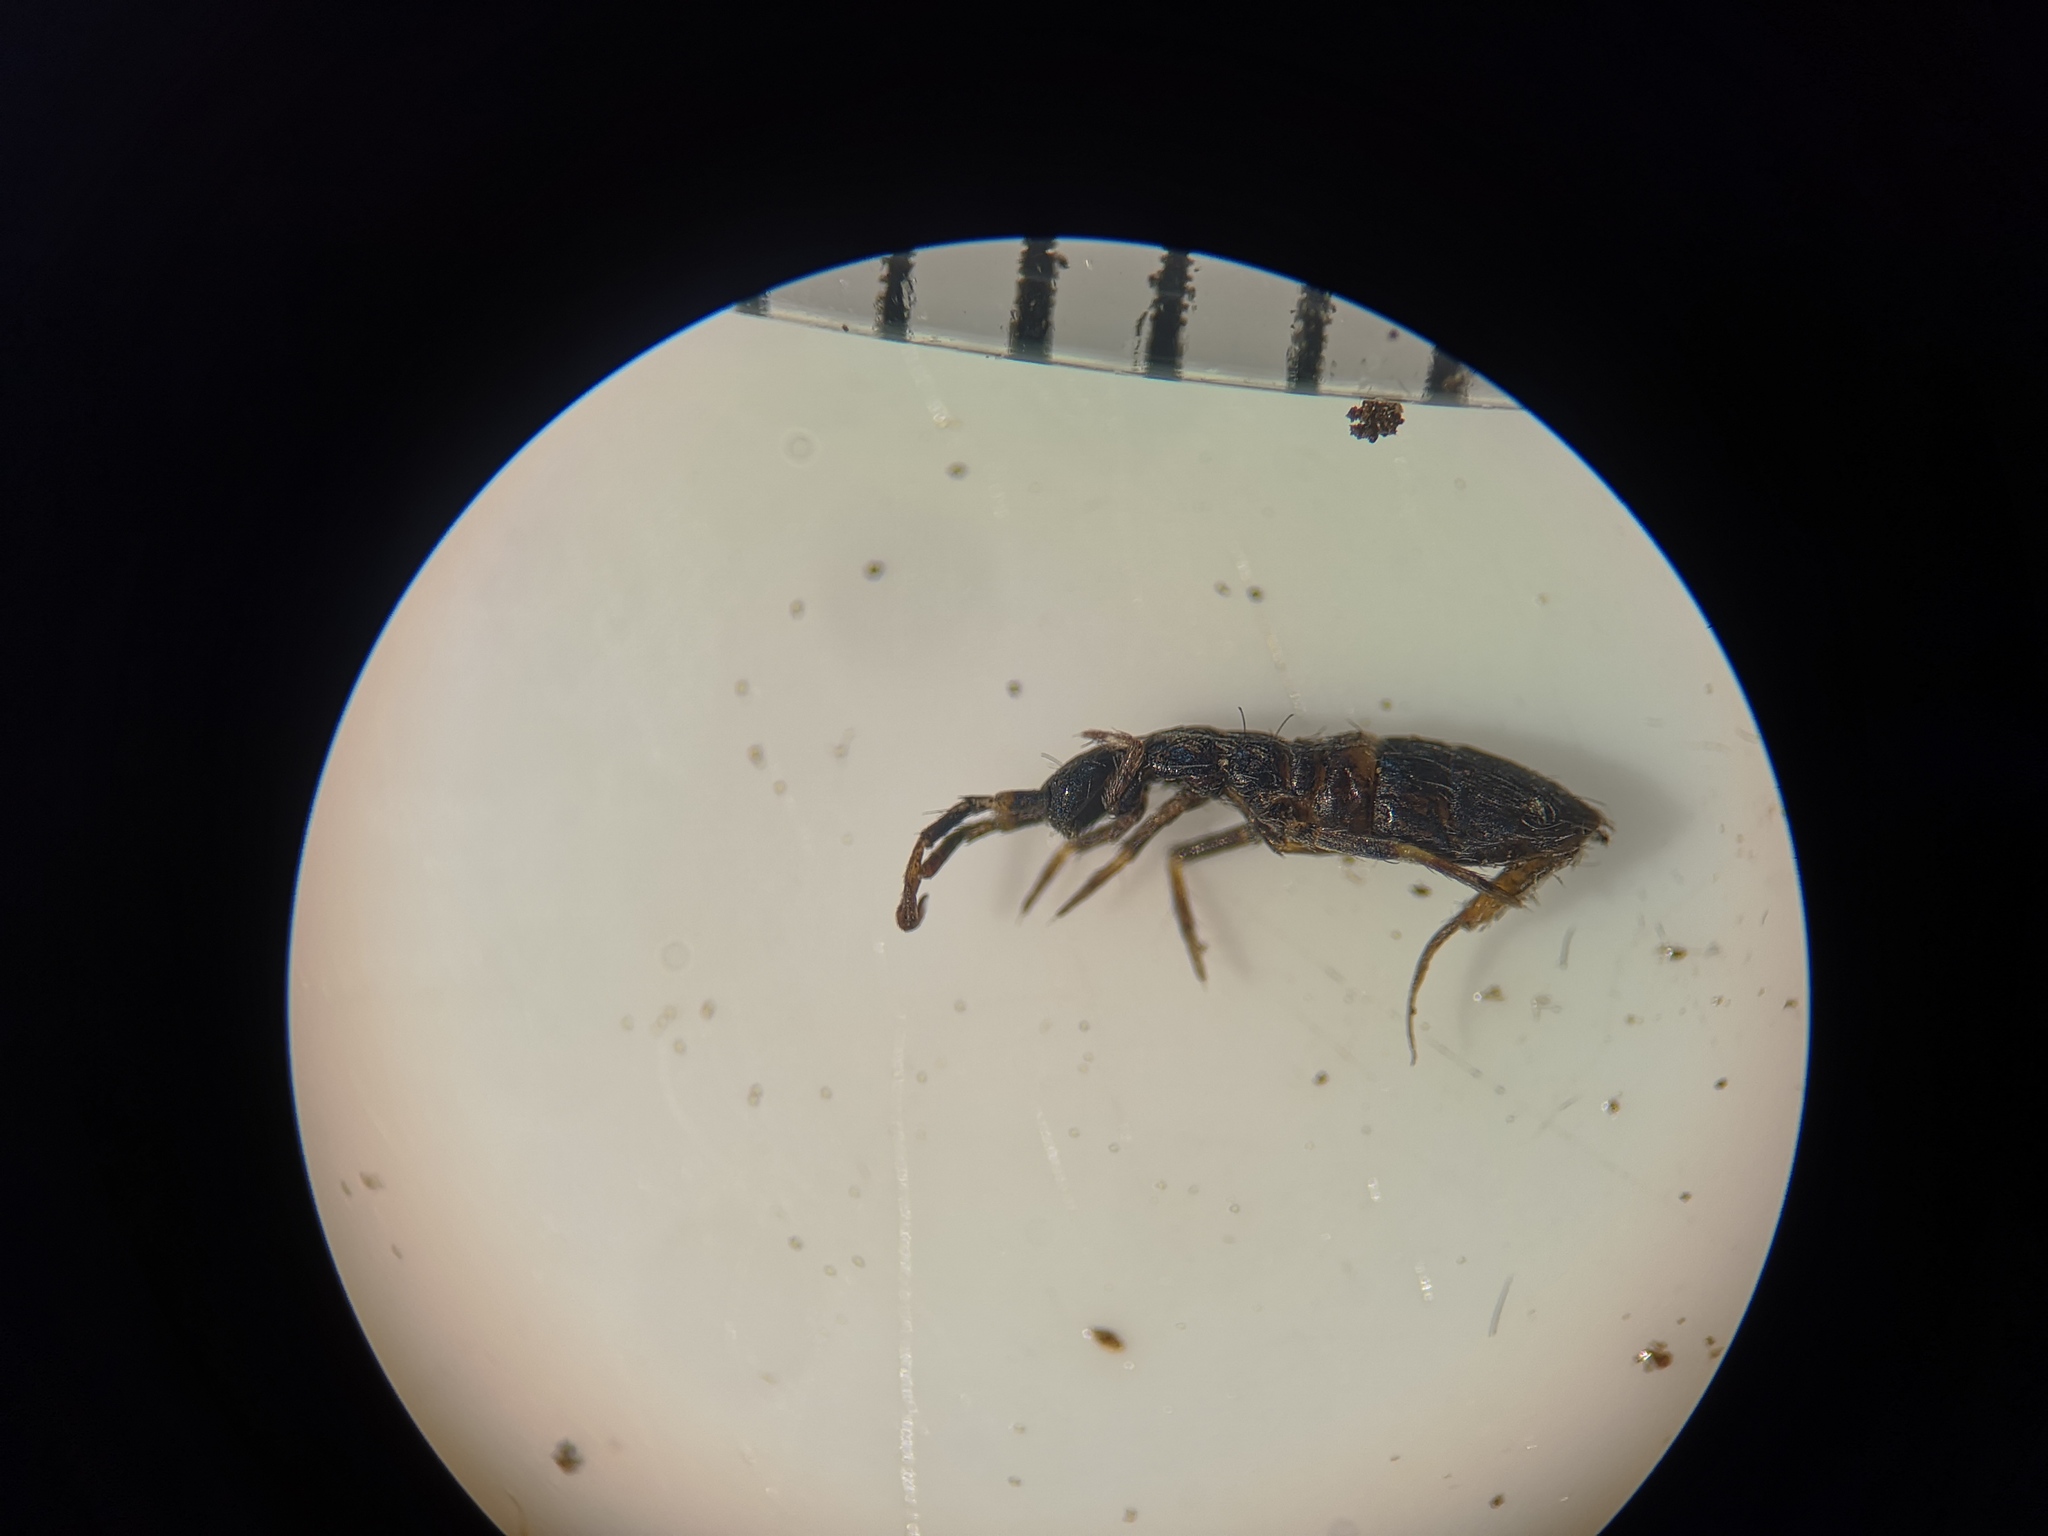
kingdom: Animalia
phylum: Arthropoda
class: Collembola
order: Entomobryomorpha
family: Orchesellidae
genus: Orchesella
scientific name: Orchesella cincta
